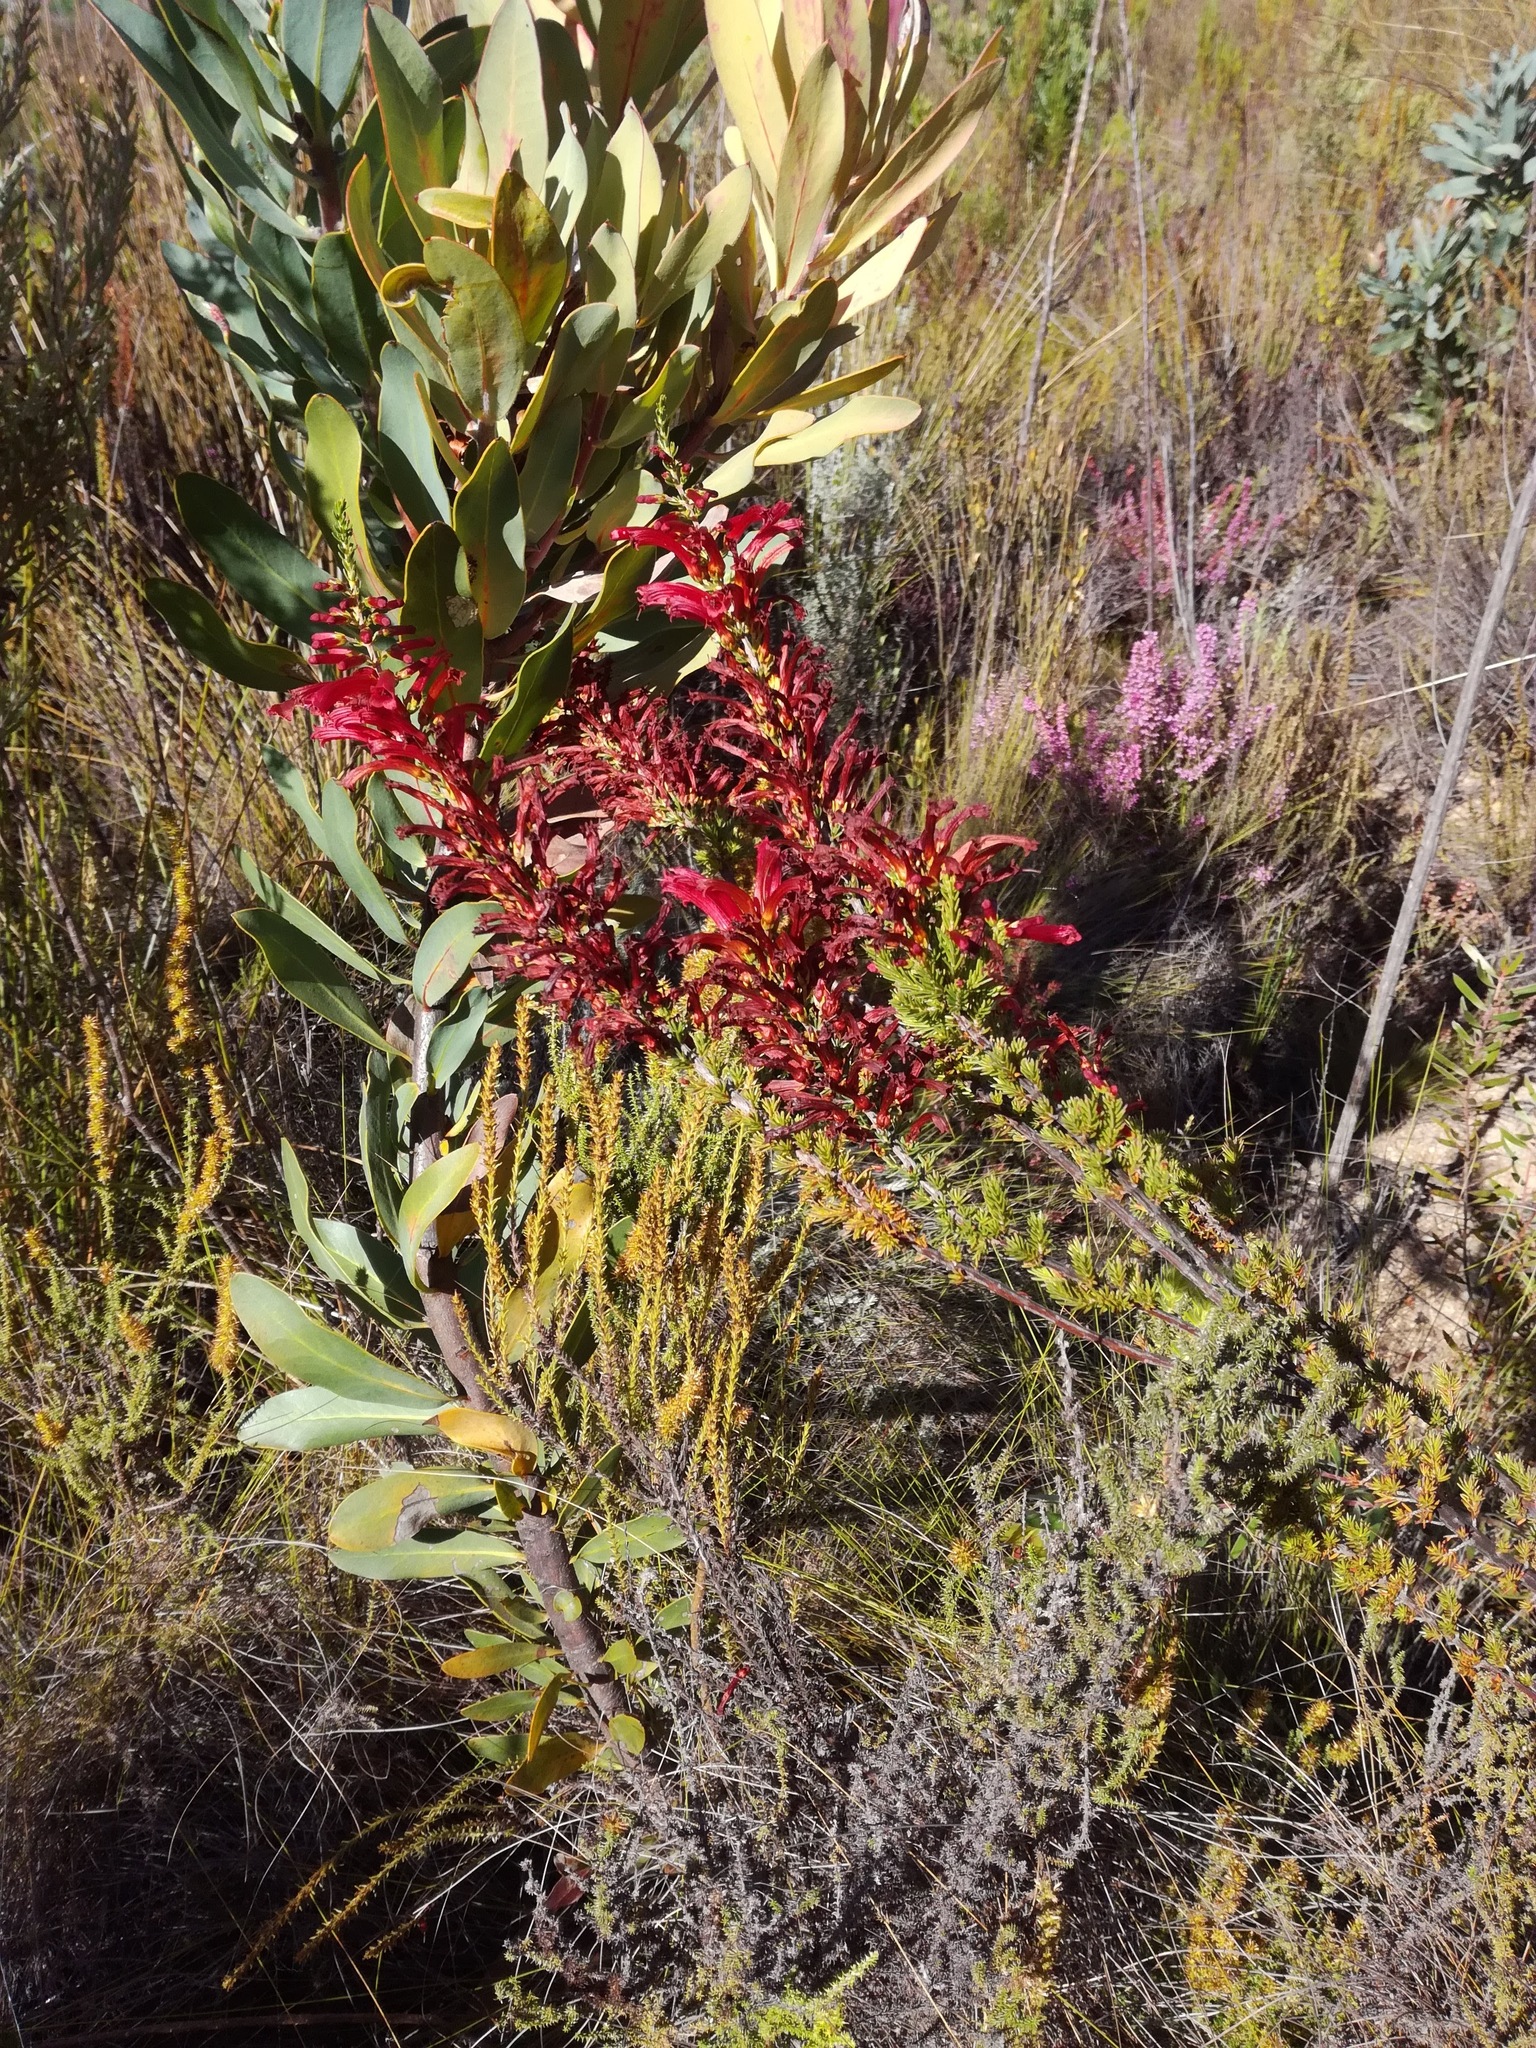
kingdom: Plantae
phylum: Tracheophyta
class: Magnoliopsida
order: Ericales
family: Ericaceae
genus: Erica
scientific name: Erica cruenta
